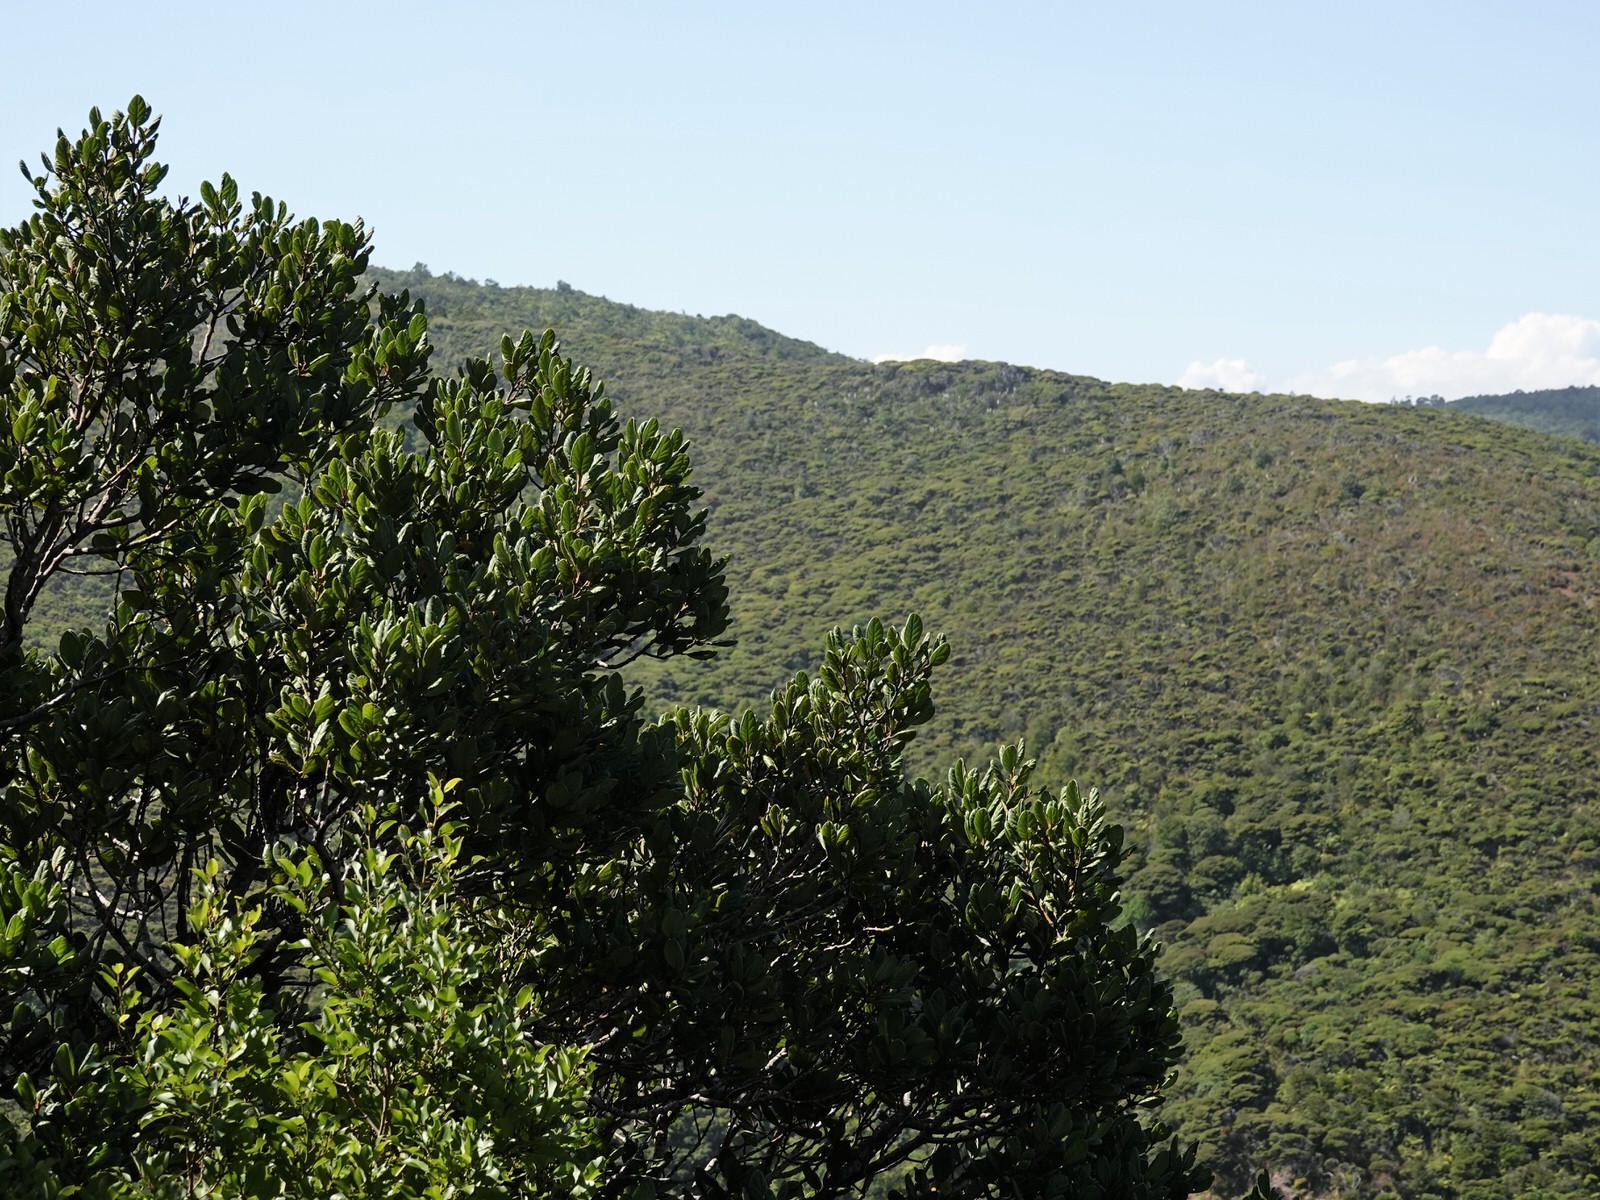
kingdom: Plantae
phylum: Tracheophyta
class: Magnoliopsida
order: Laurales
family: Lauraceae
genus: Beilschmiedia
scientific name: Beilschmiedia tarairi
